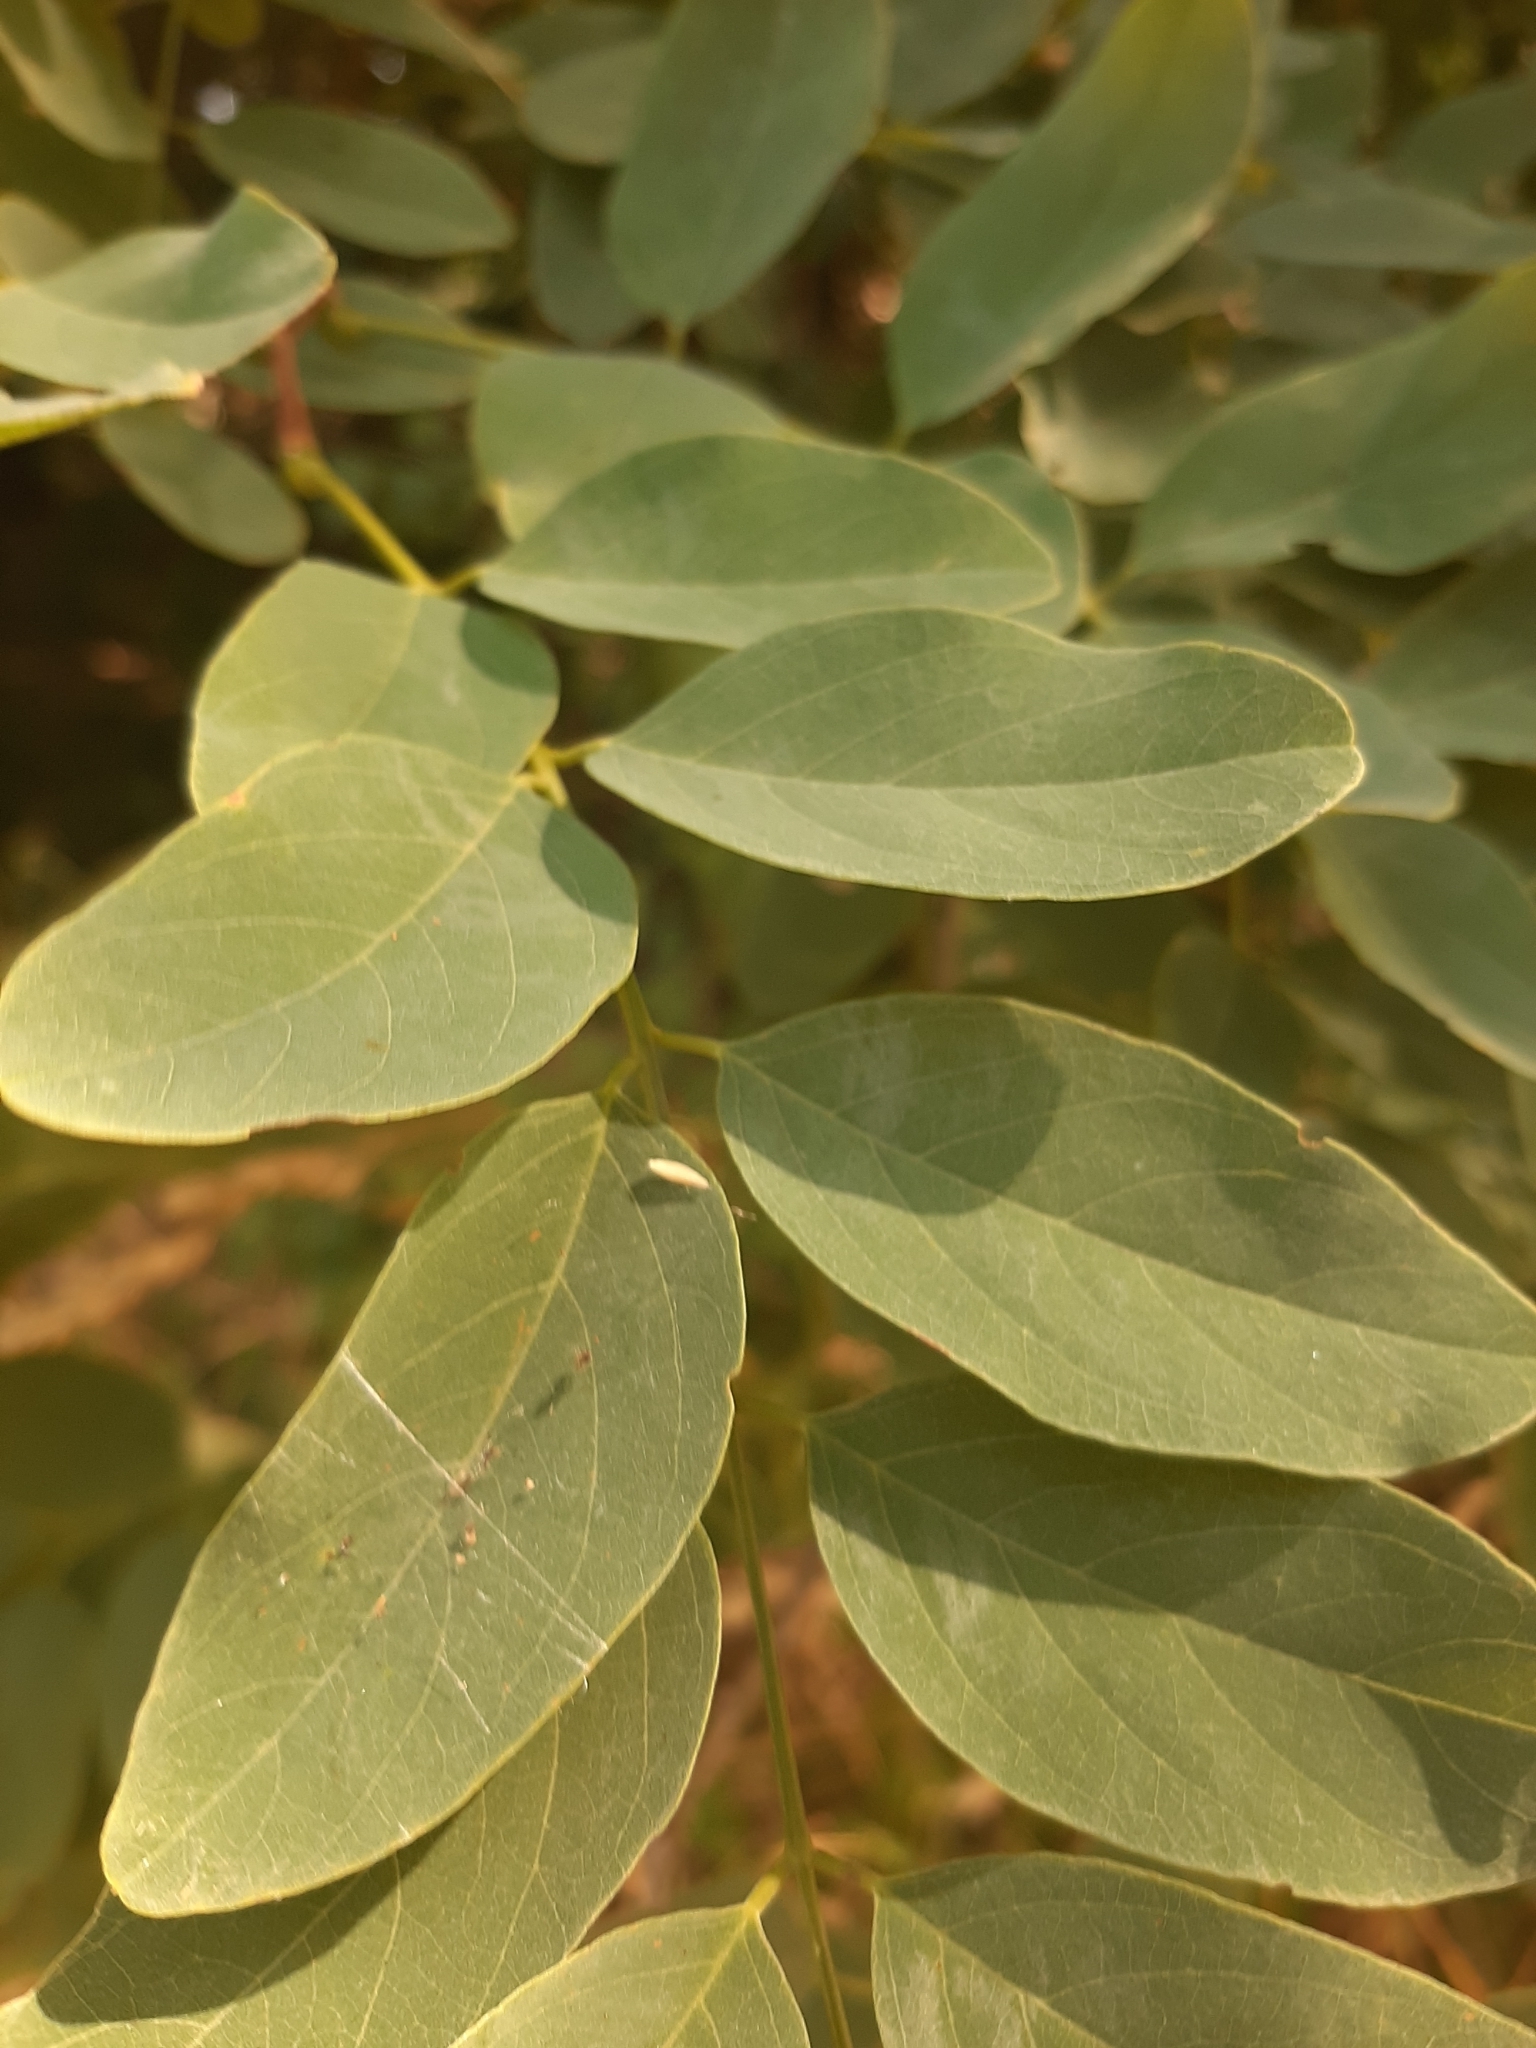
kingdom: Plantae
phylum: Tracheophyta
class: Magnoliopsida
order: Fabales
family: Fabaceae
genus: Robinia
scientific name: Robinia pseudoacacia
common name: Black locust
